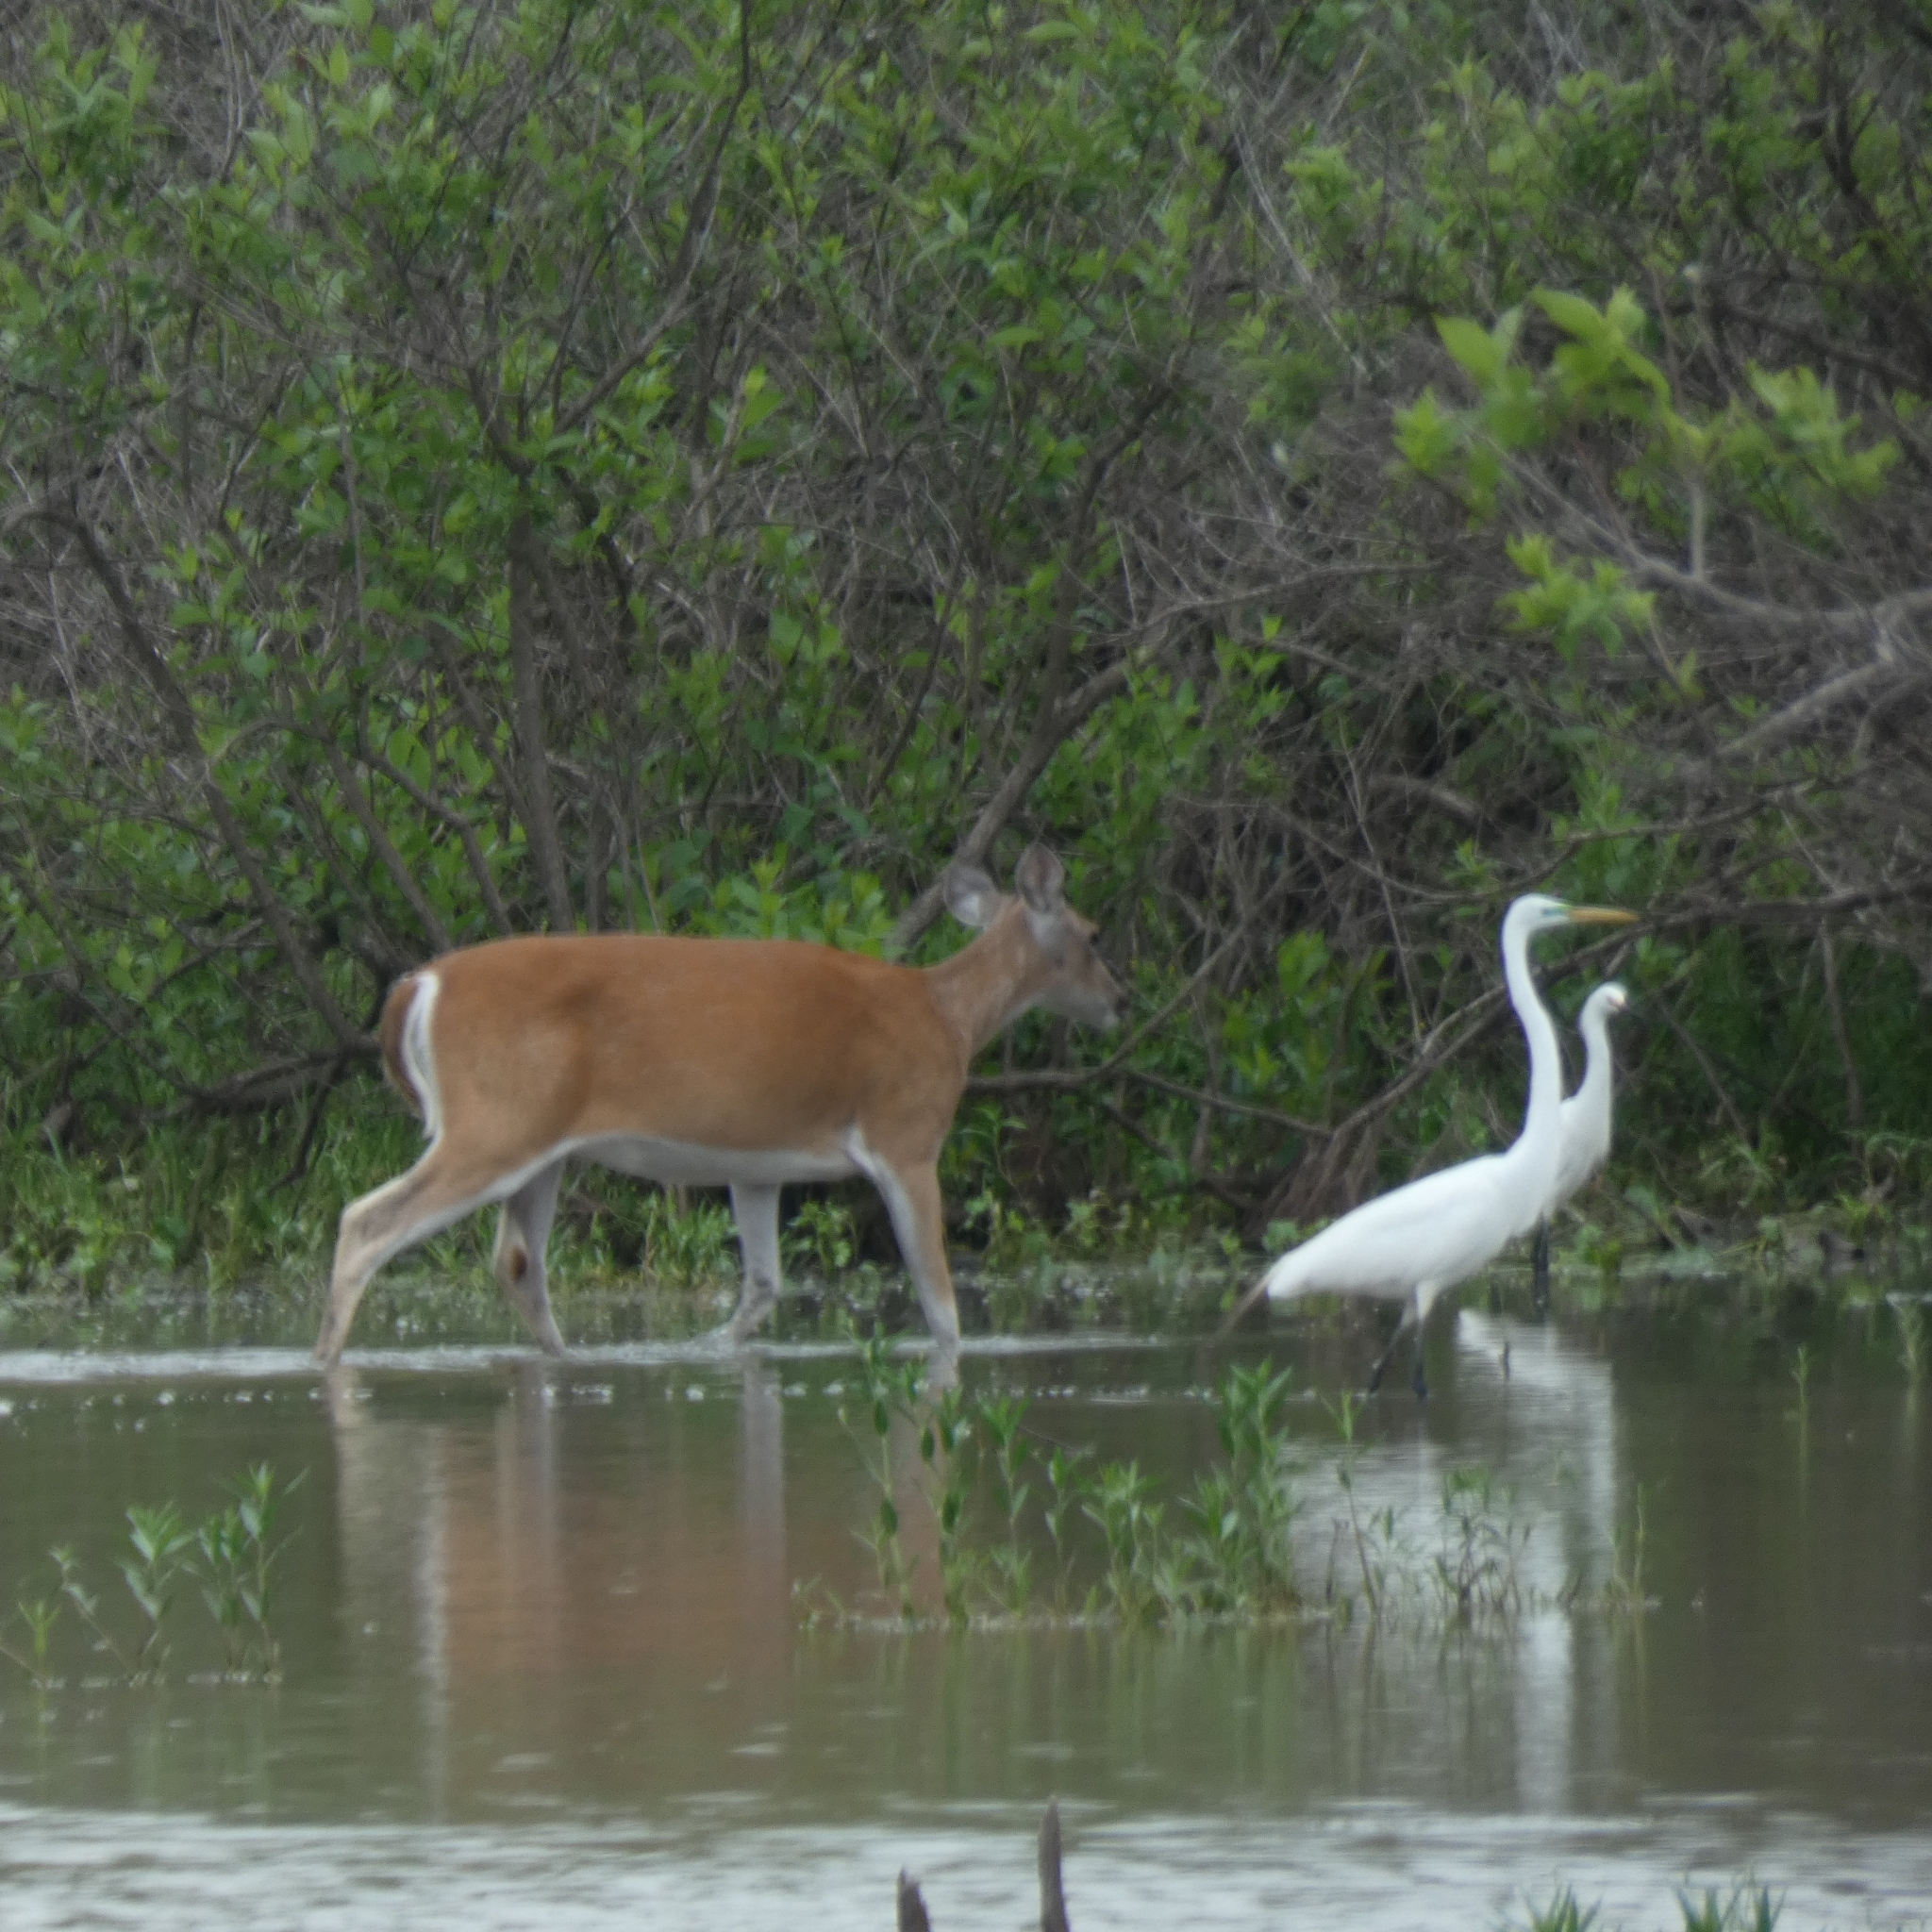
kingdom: Animalia
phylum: Chordata
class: Mammalia
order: Artiodactyla
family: Cervidae
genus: Odocoileus
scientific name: Odocoileus virginianus
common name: White-tailed deer
